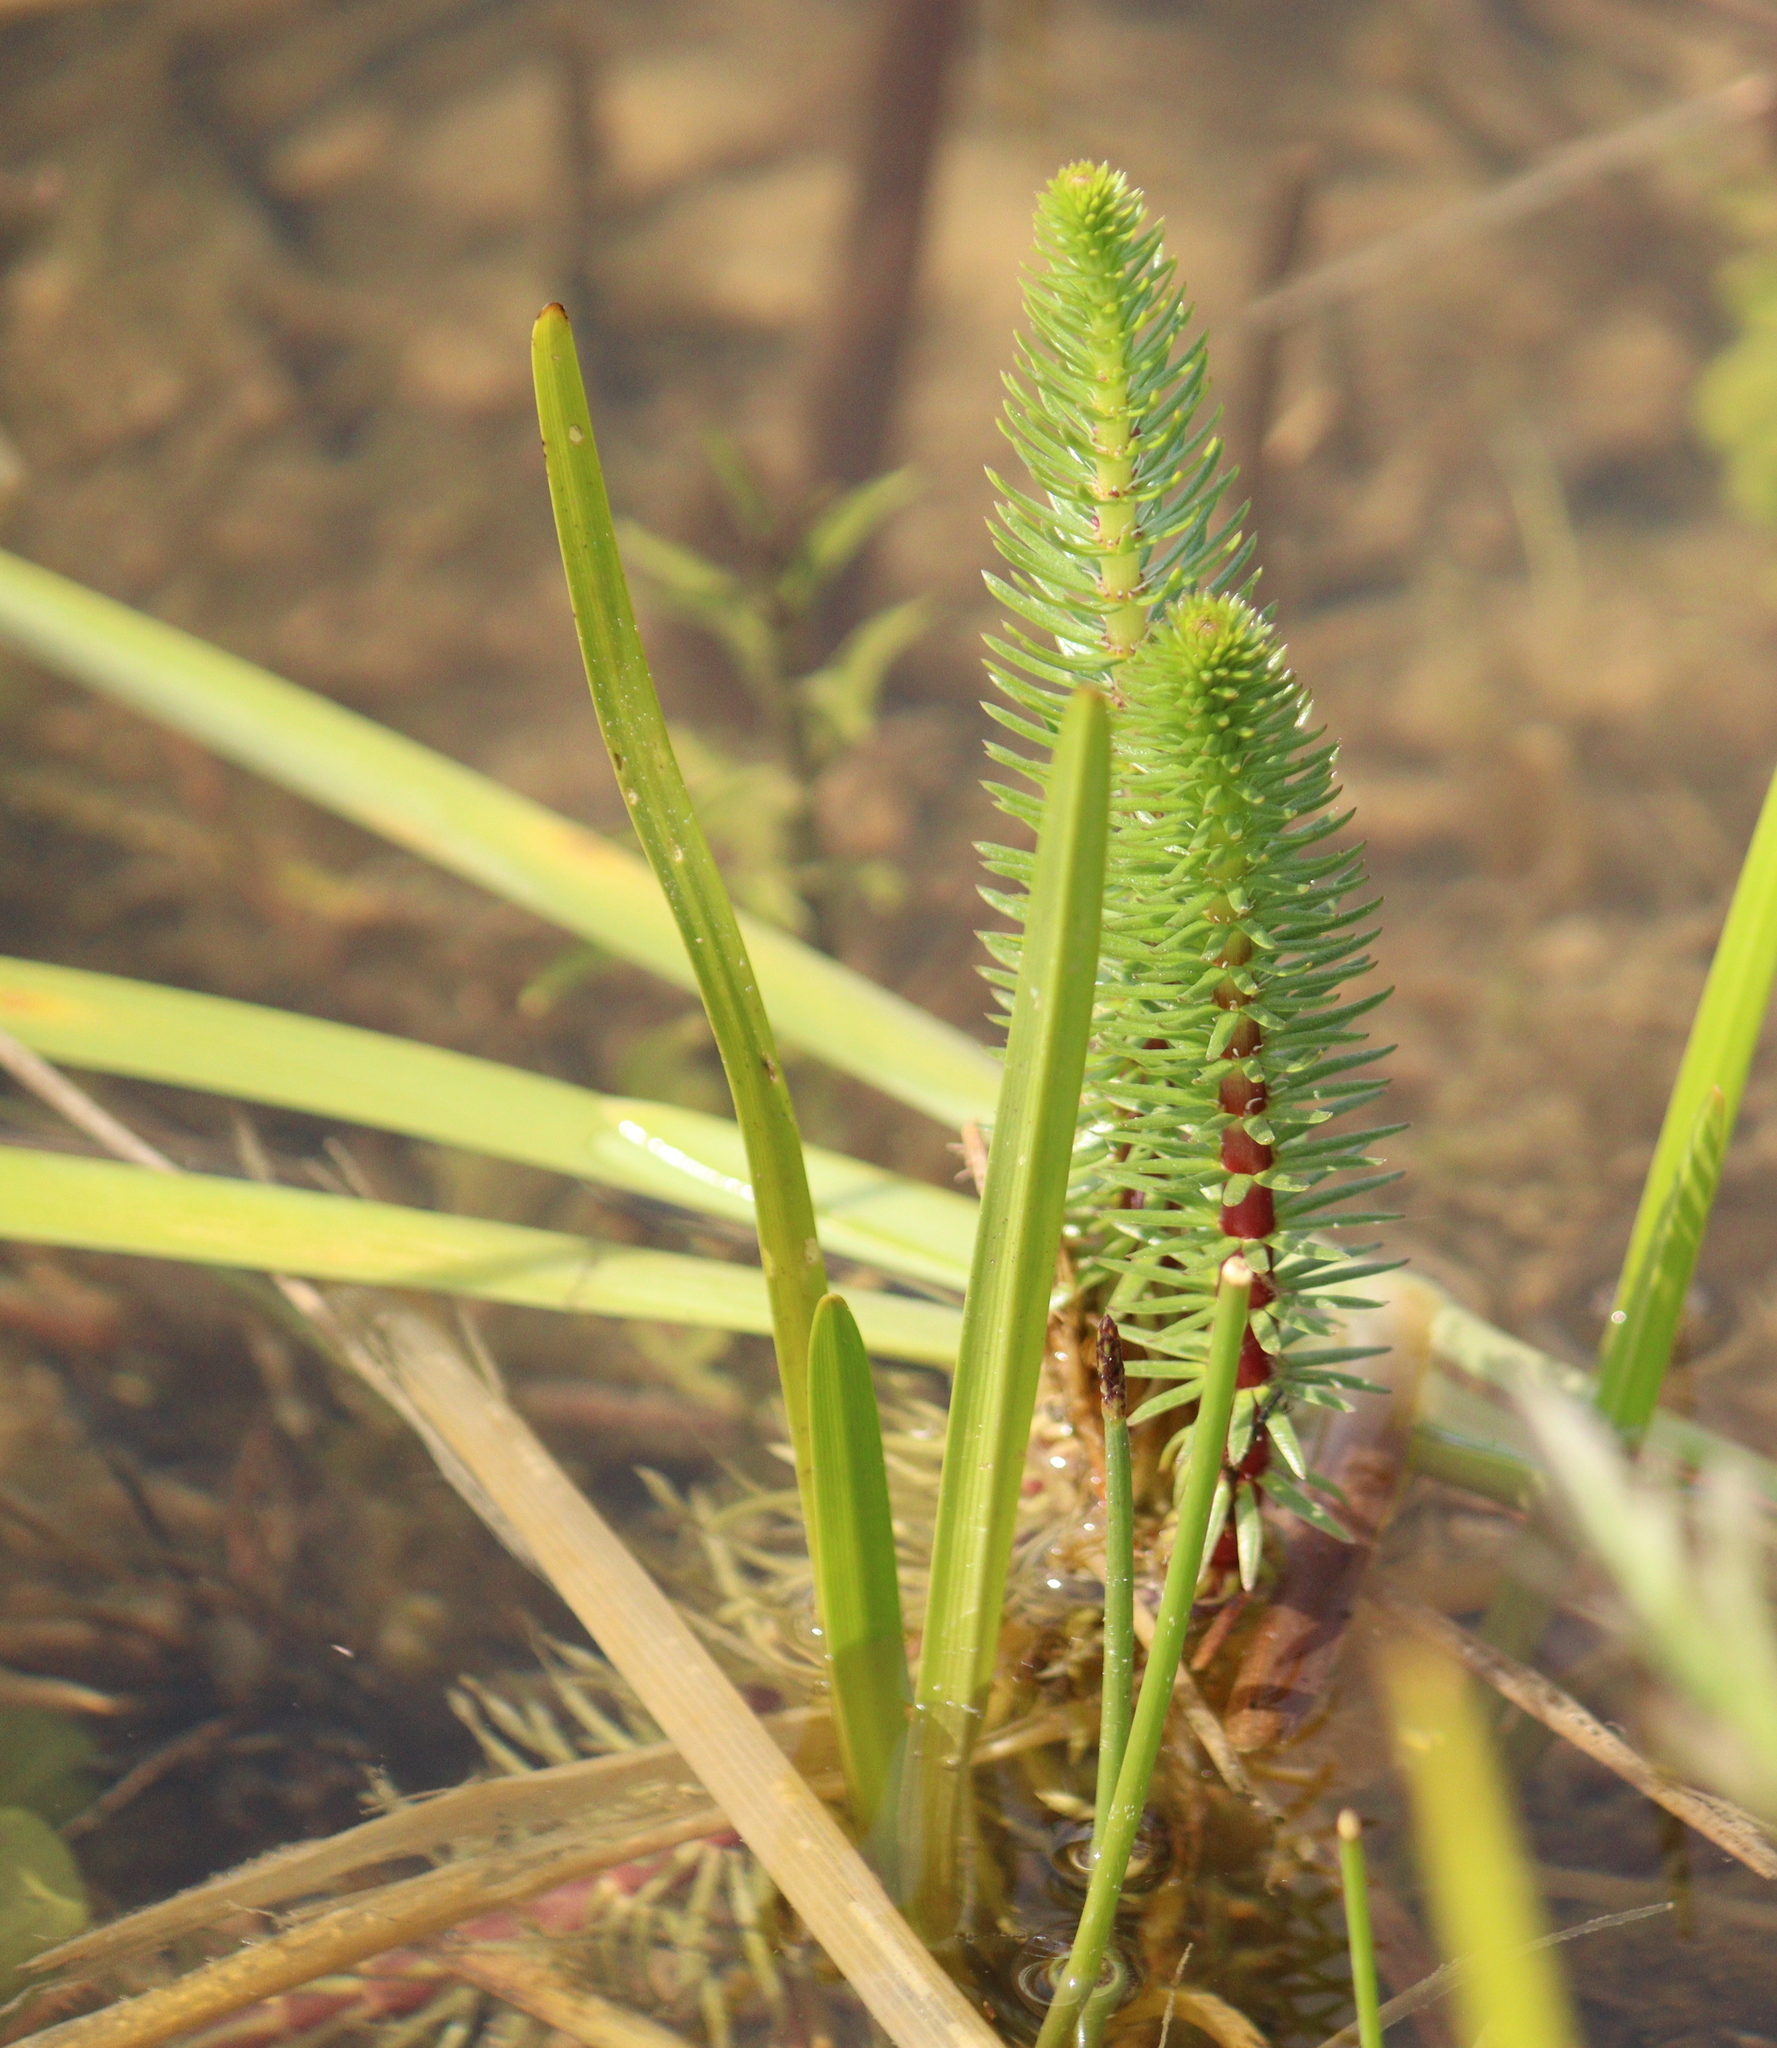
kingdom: Plantae
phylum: Tracheophyta
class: Magnoliopsida
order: Lamiales
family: Plantaginaceae
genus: Hippuris
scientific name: Hippuris vulgaris
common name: Mare's-tail
